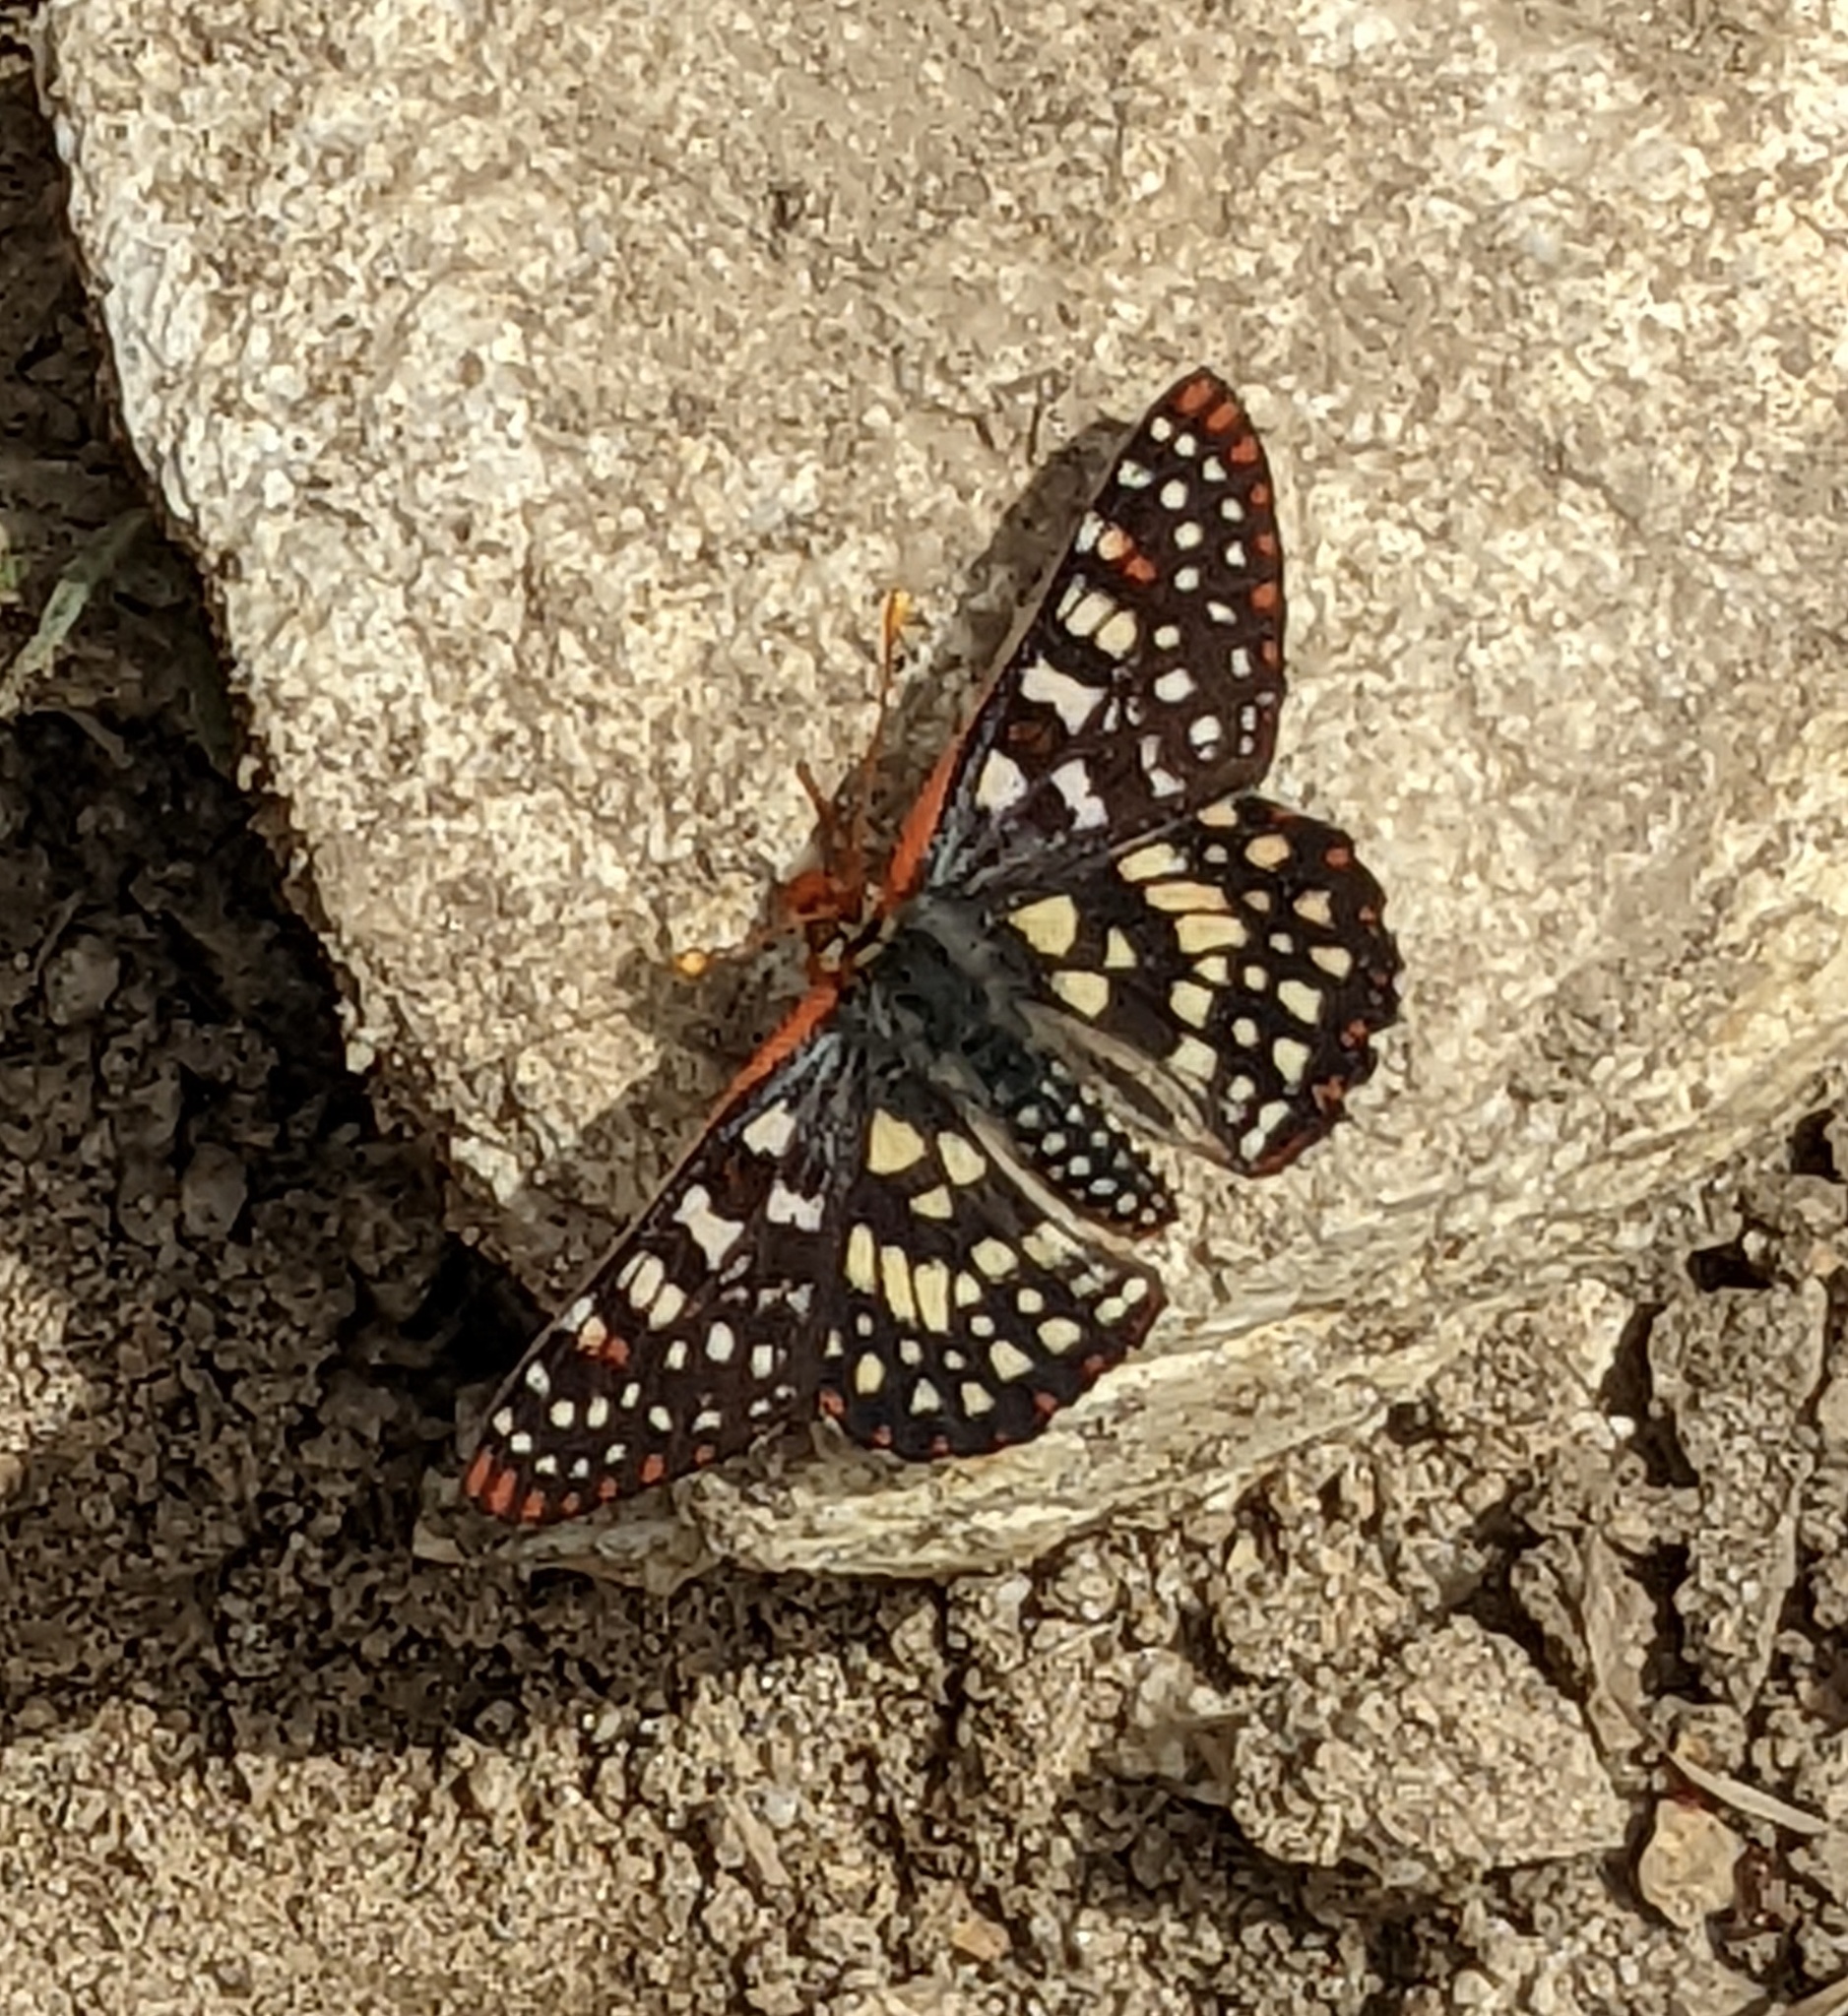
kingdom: Animalia
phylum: Arthropoda
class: Insecta
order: Lepidoptera
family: Nymphalidae
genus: Occidryas
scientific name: Occidryas chalcedona
